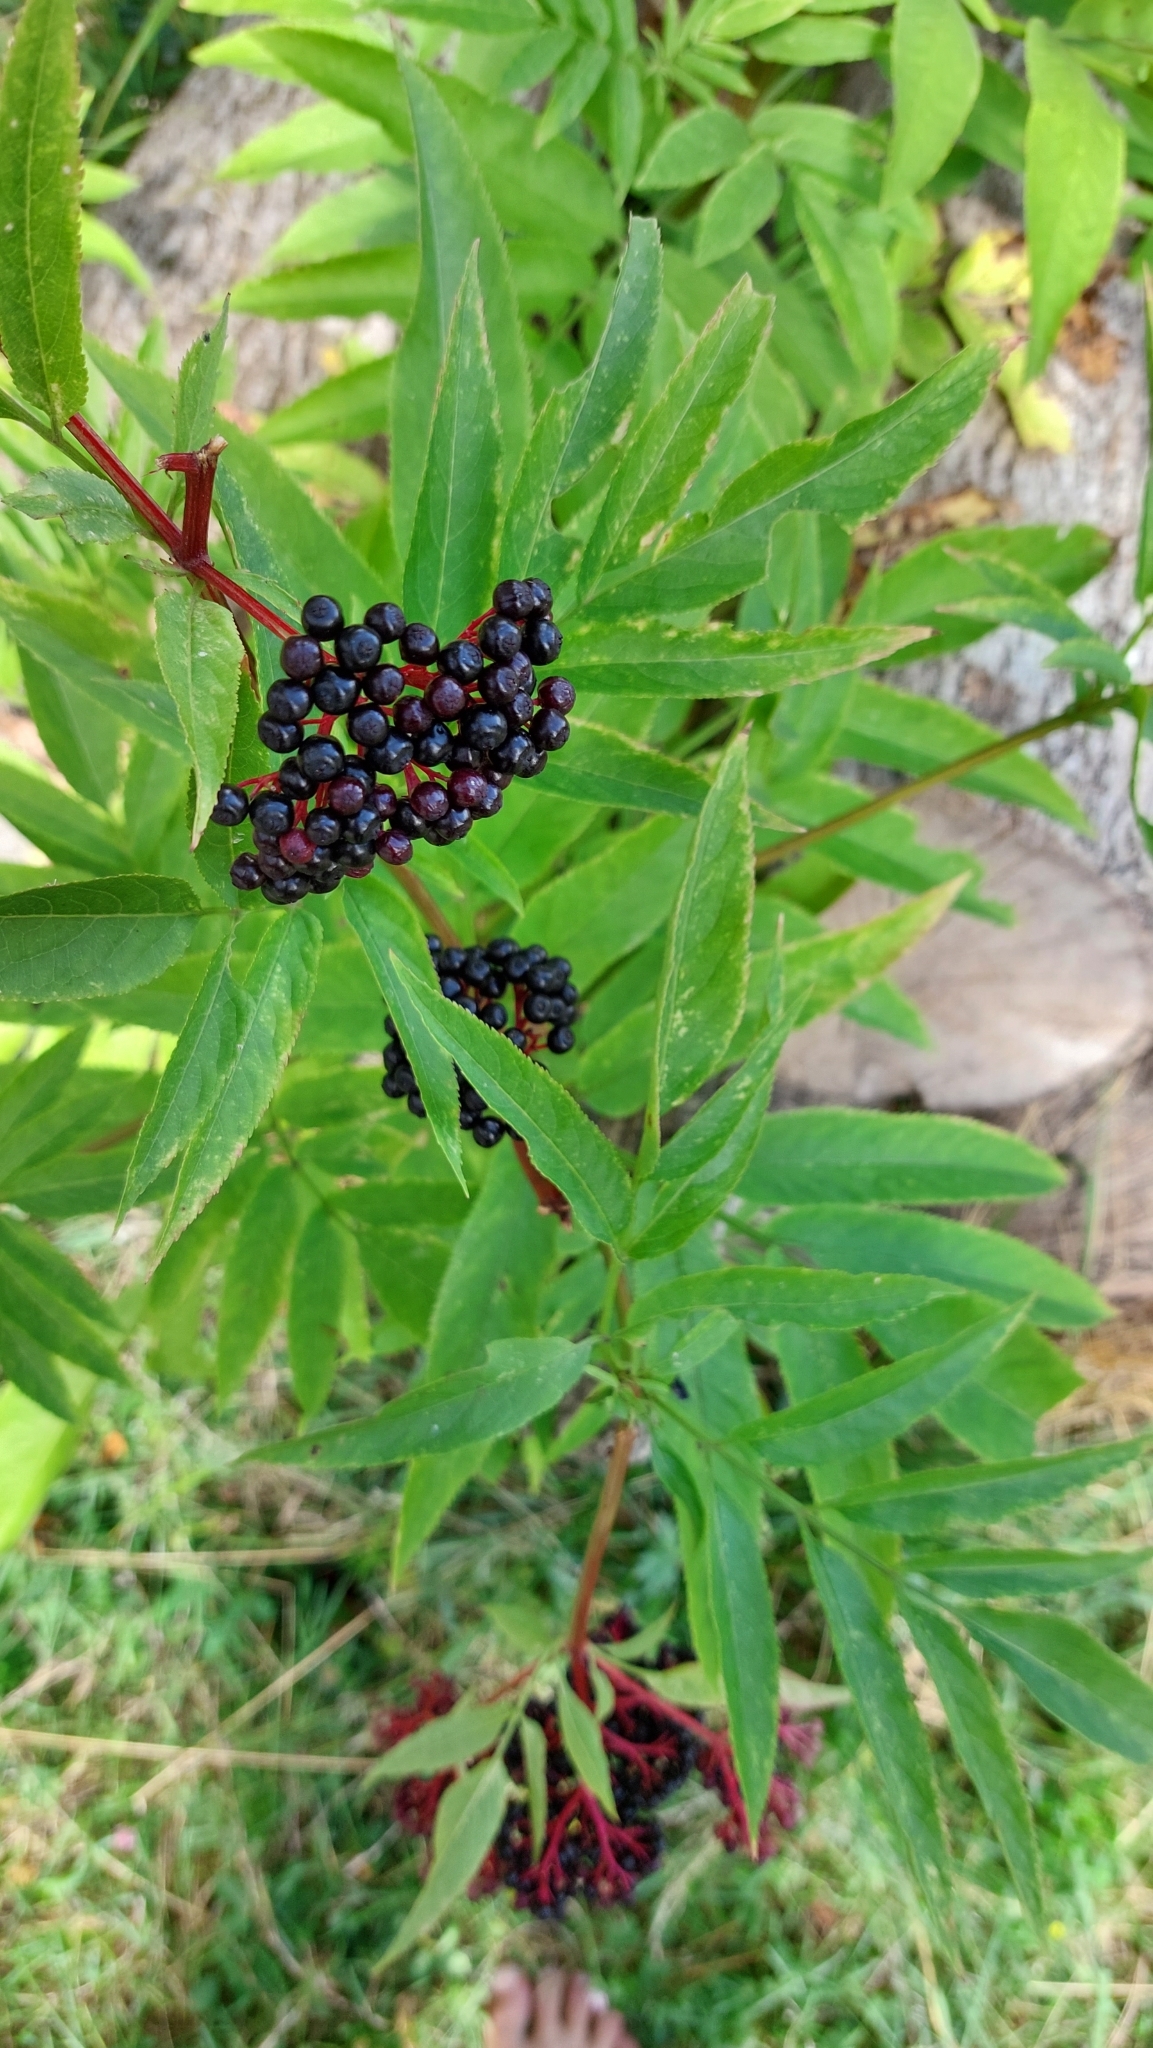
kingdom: Plantae
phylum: Tracheophyta
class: Magnoliopsida
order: Dipsacales
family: Viburnaceae
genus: Sambucus
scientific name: Sambucus ebulus
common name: Dwarf elder
